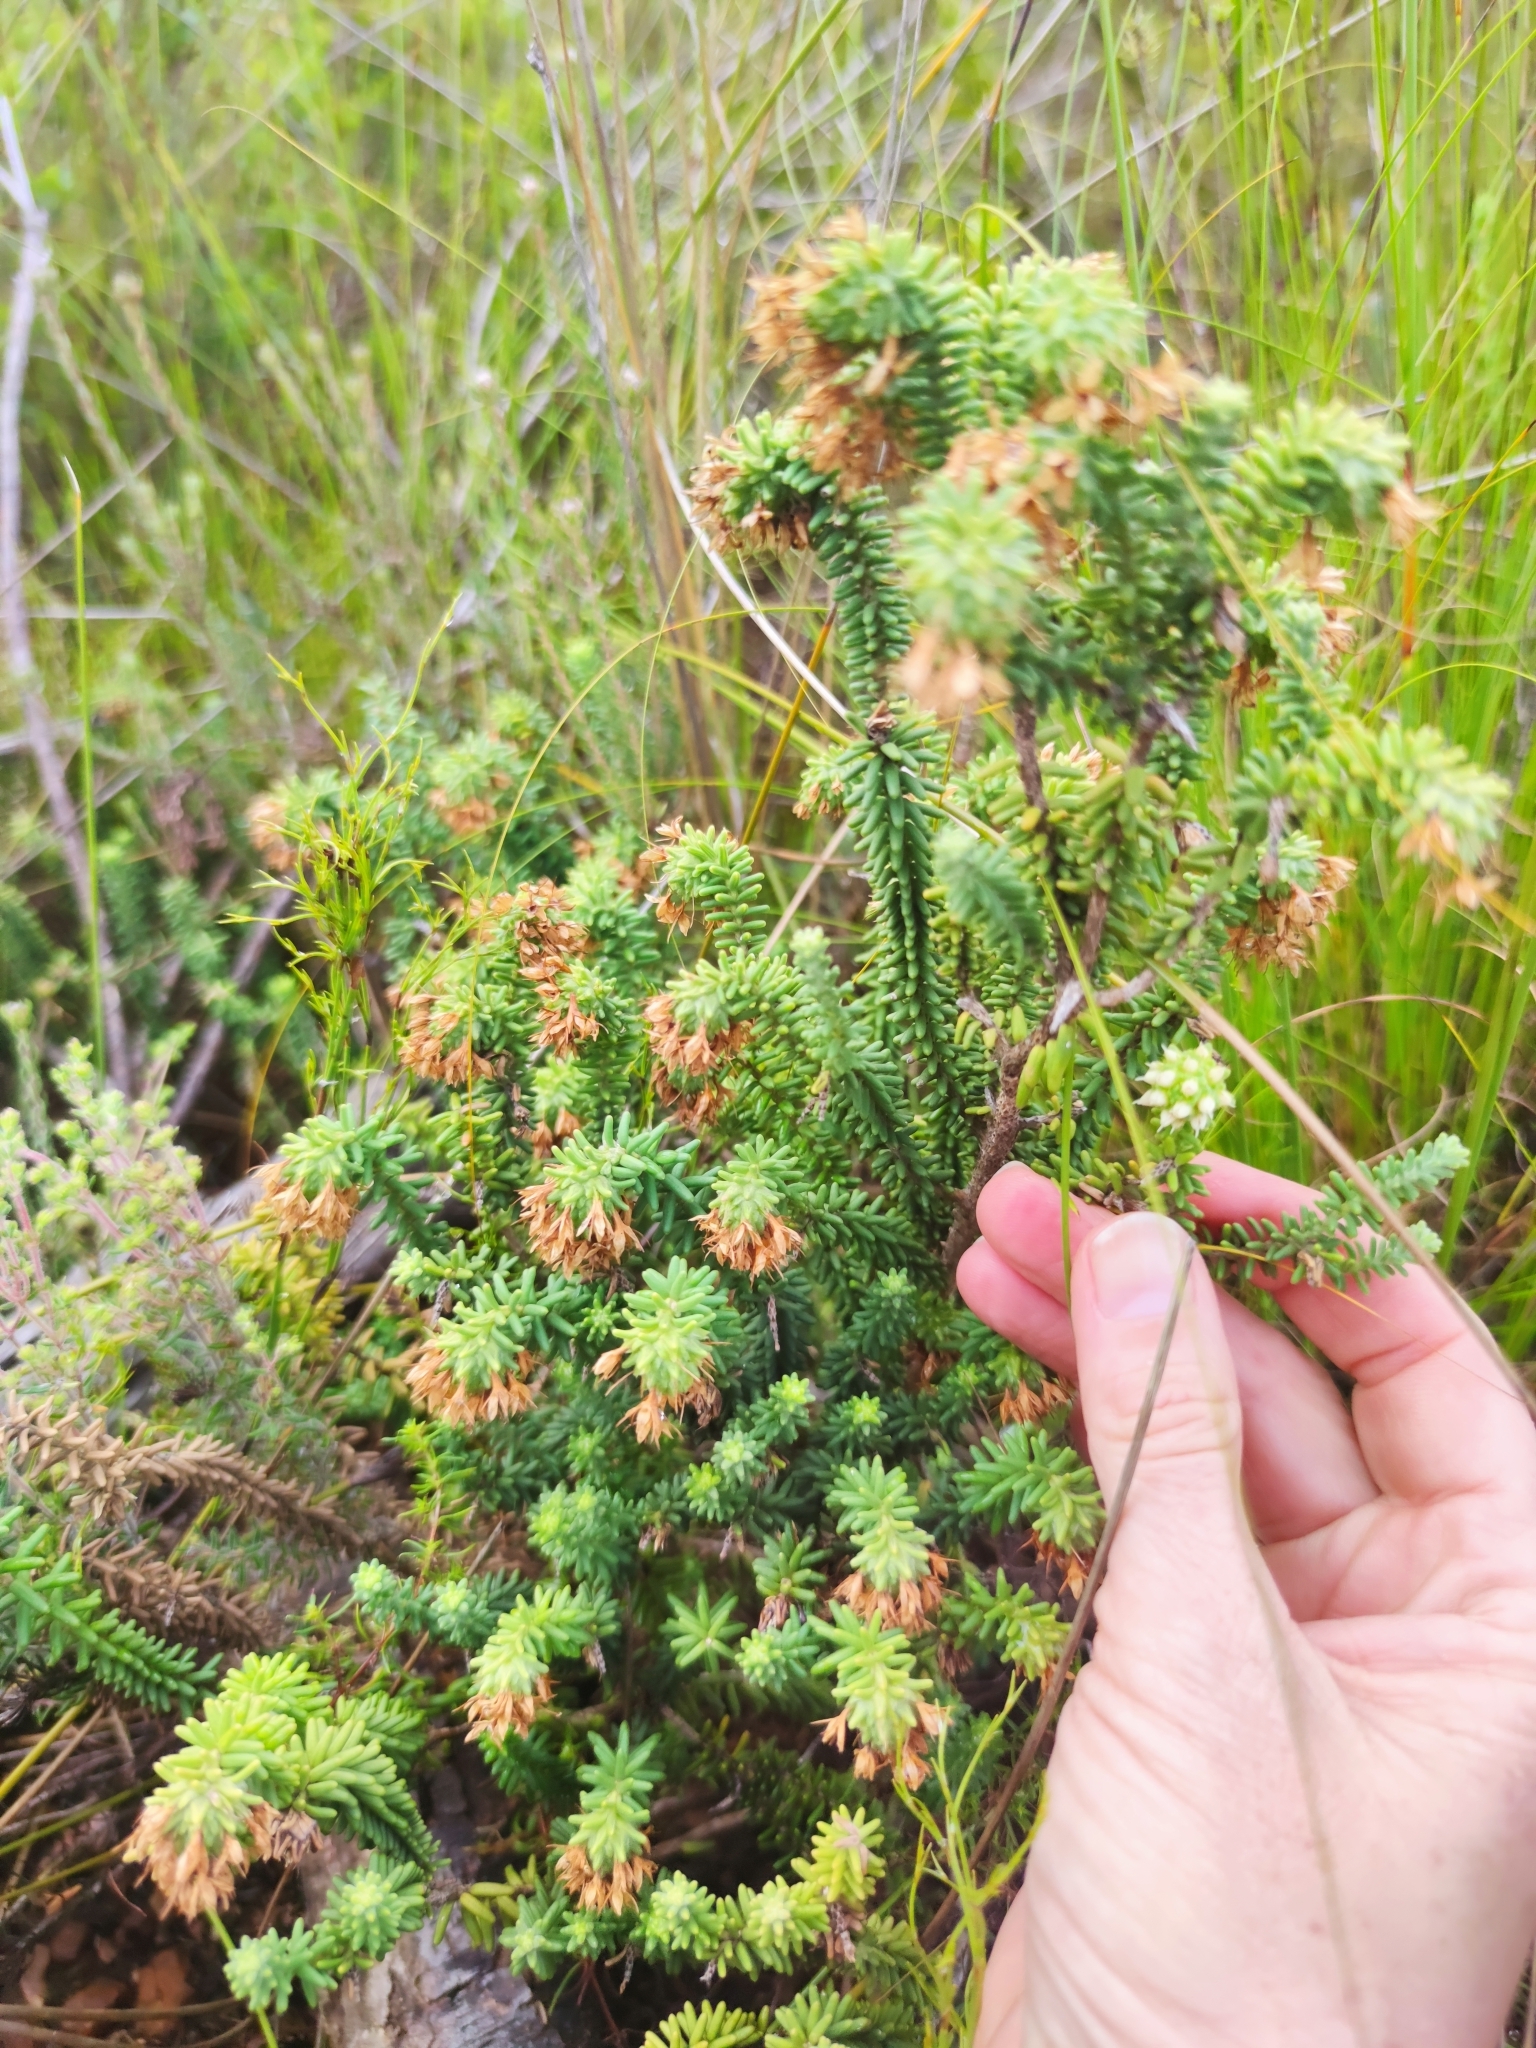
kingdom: Plantae
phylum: Tracheophyta
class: Magnoliopsida
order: Lamiales
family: Stilbaceae
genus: Campylostachys
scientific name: Campylostachys cernua
